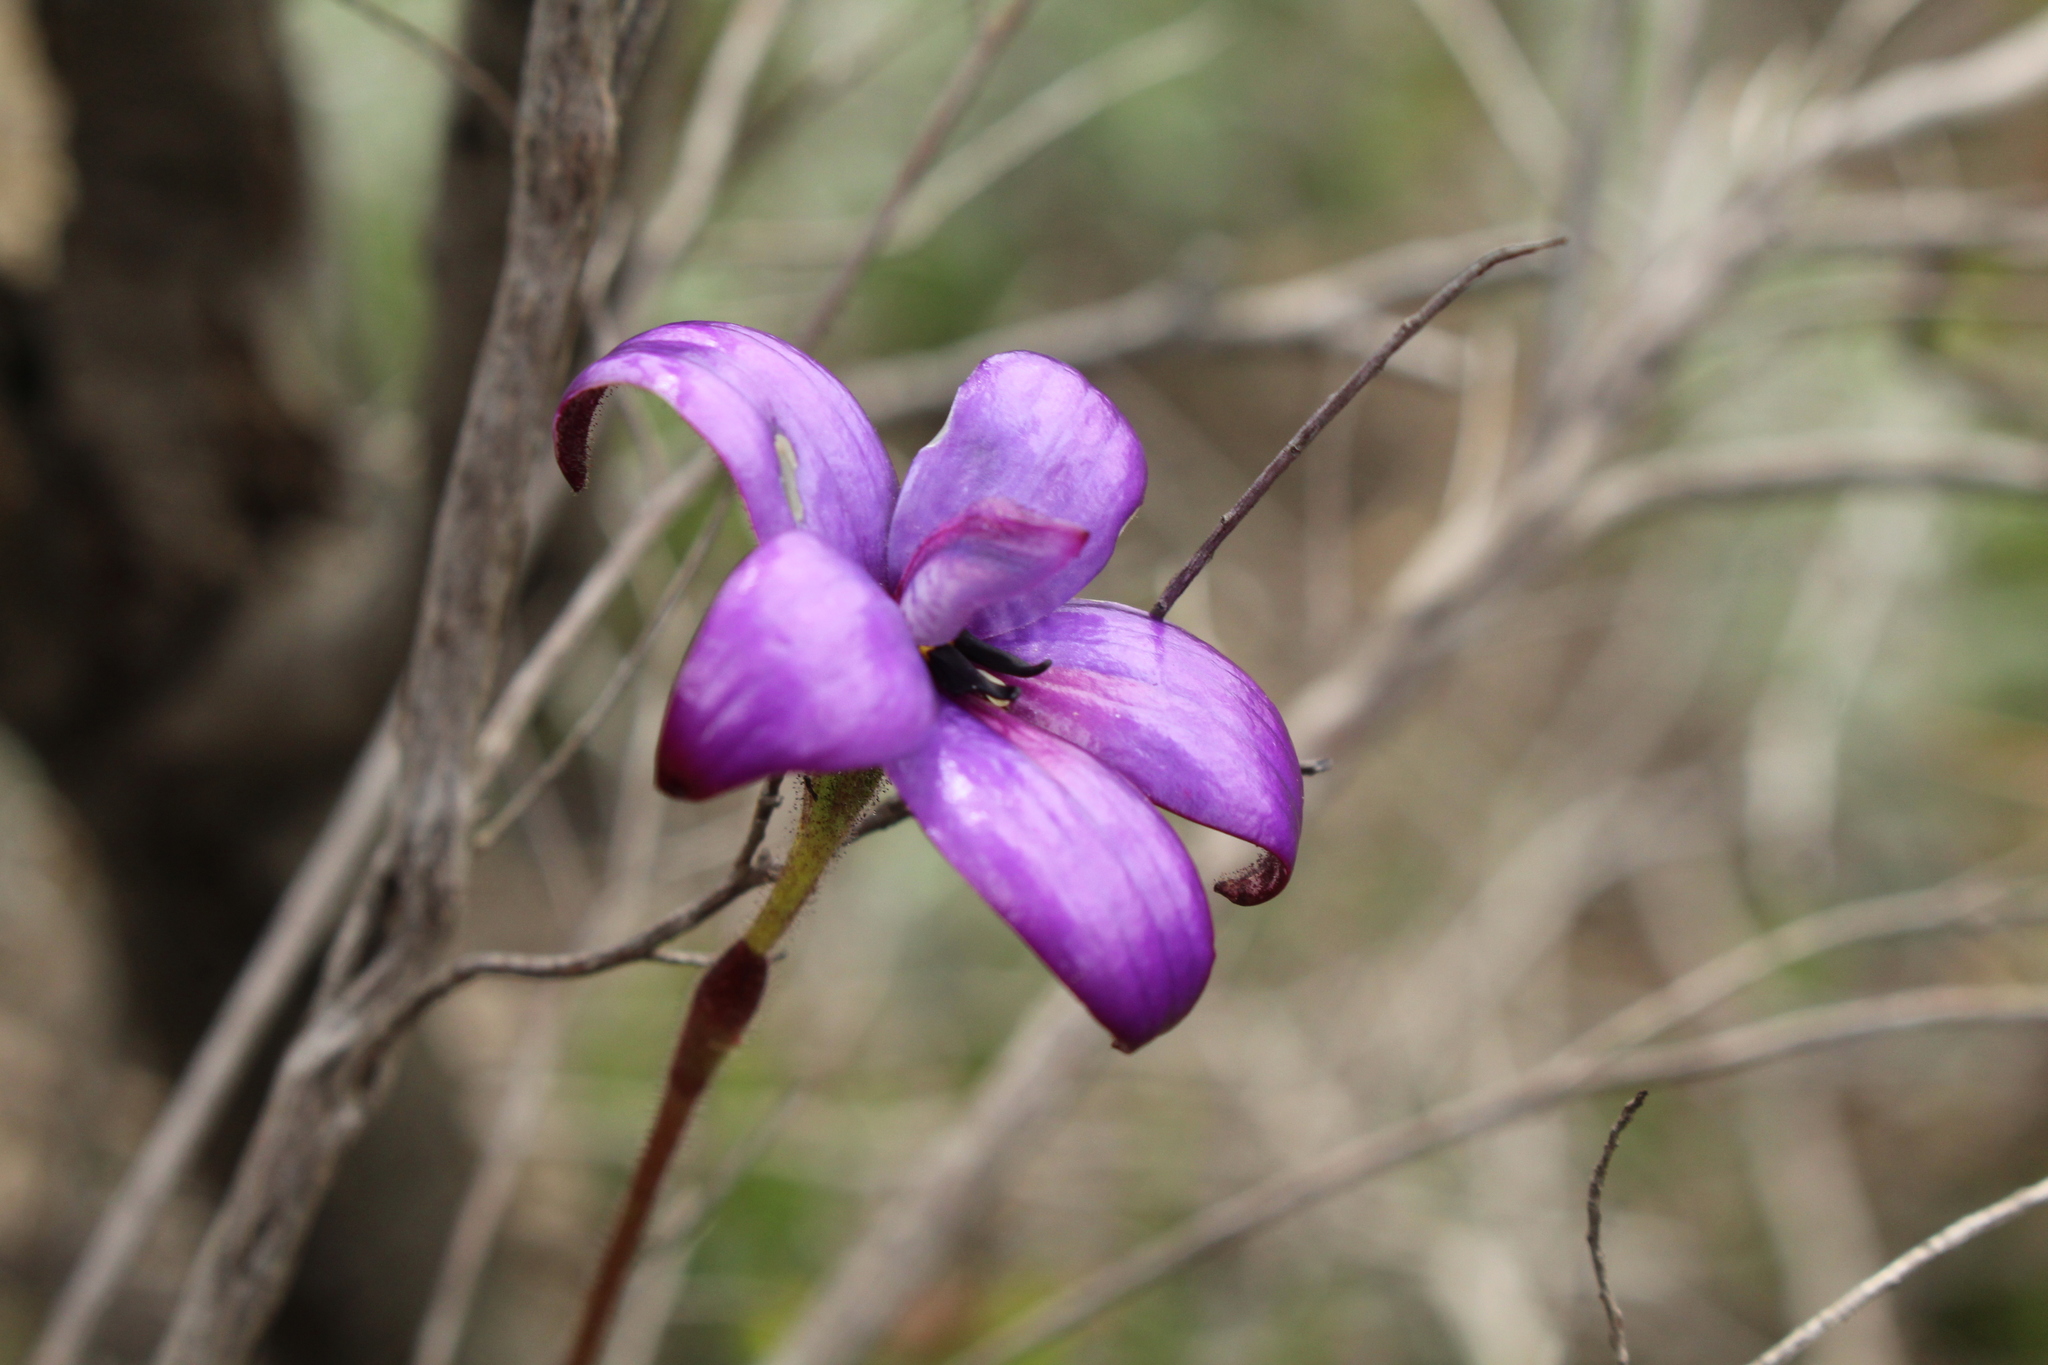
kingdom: Plantae
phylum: Tracheophyta
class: Liliopsida
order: Asparagales
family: Orchidaceae
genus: Caladenia
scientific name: Caladenia brunonis
